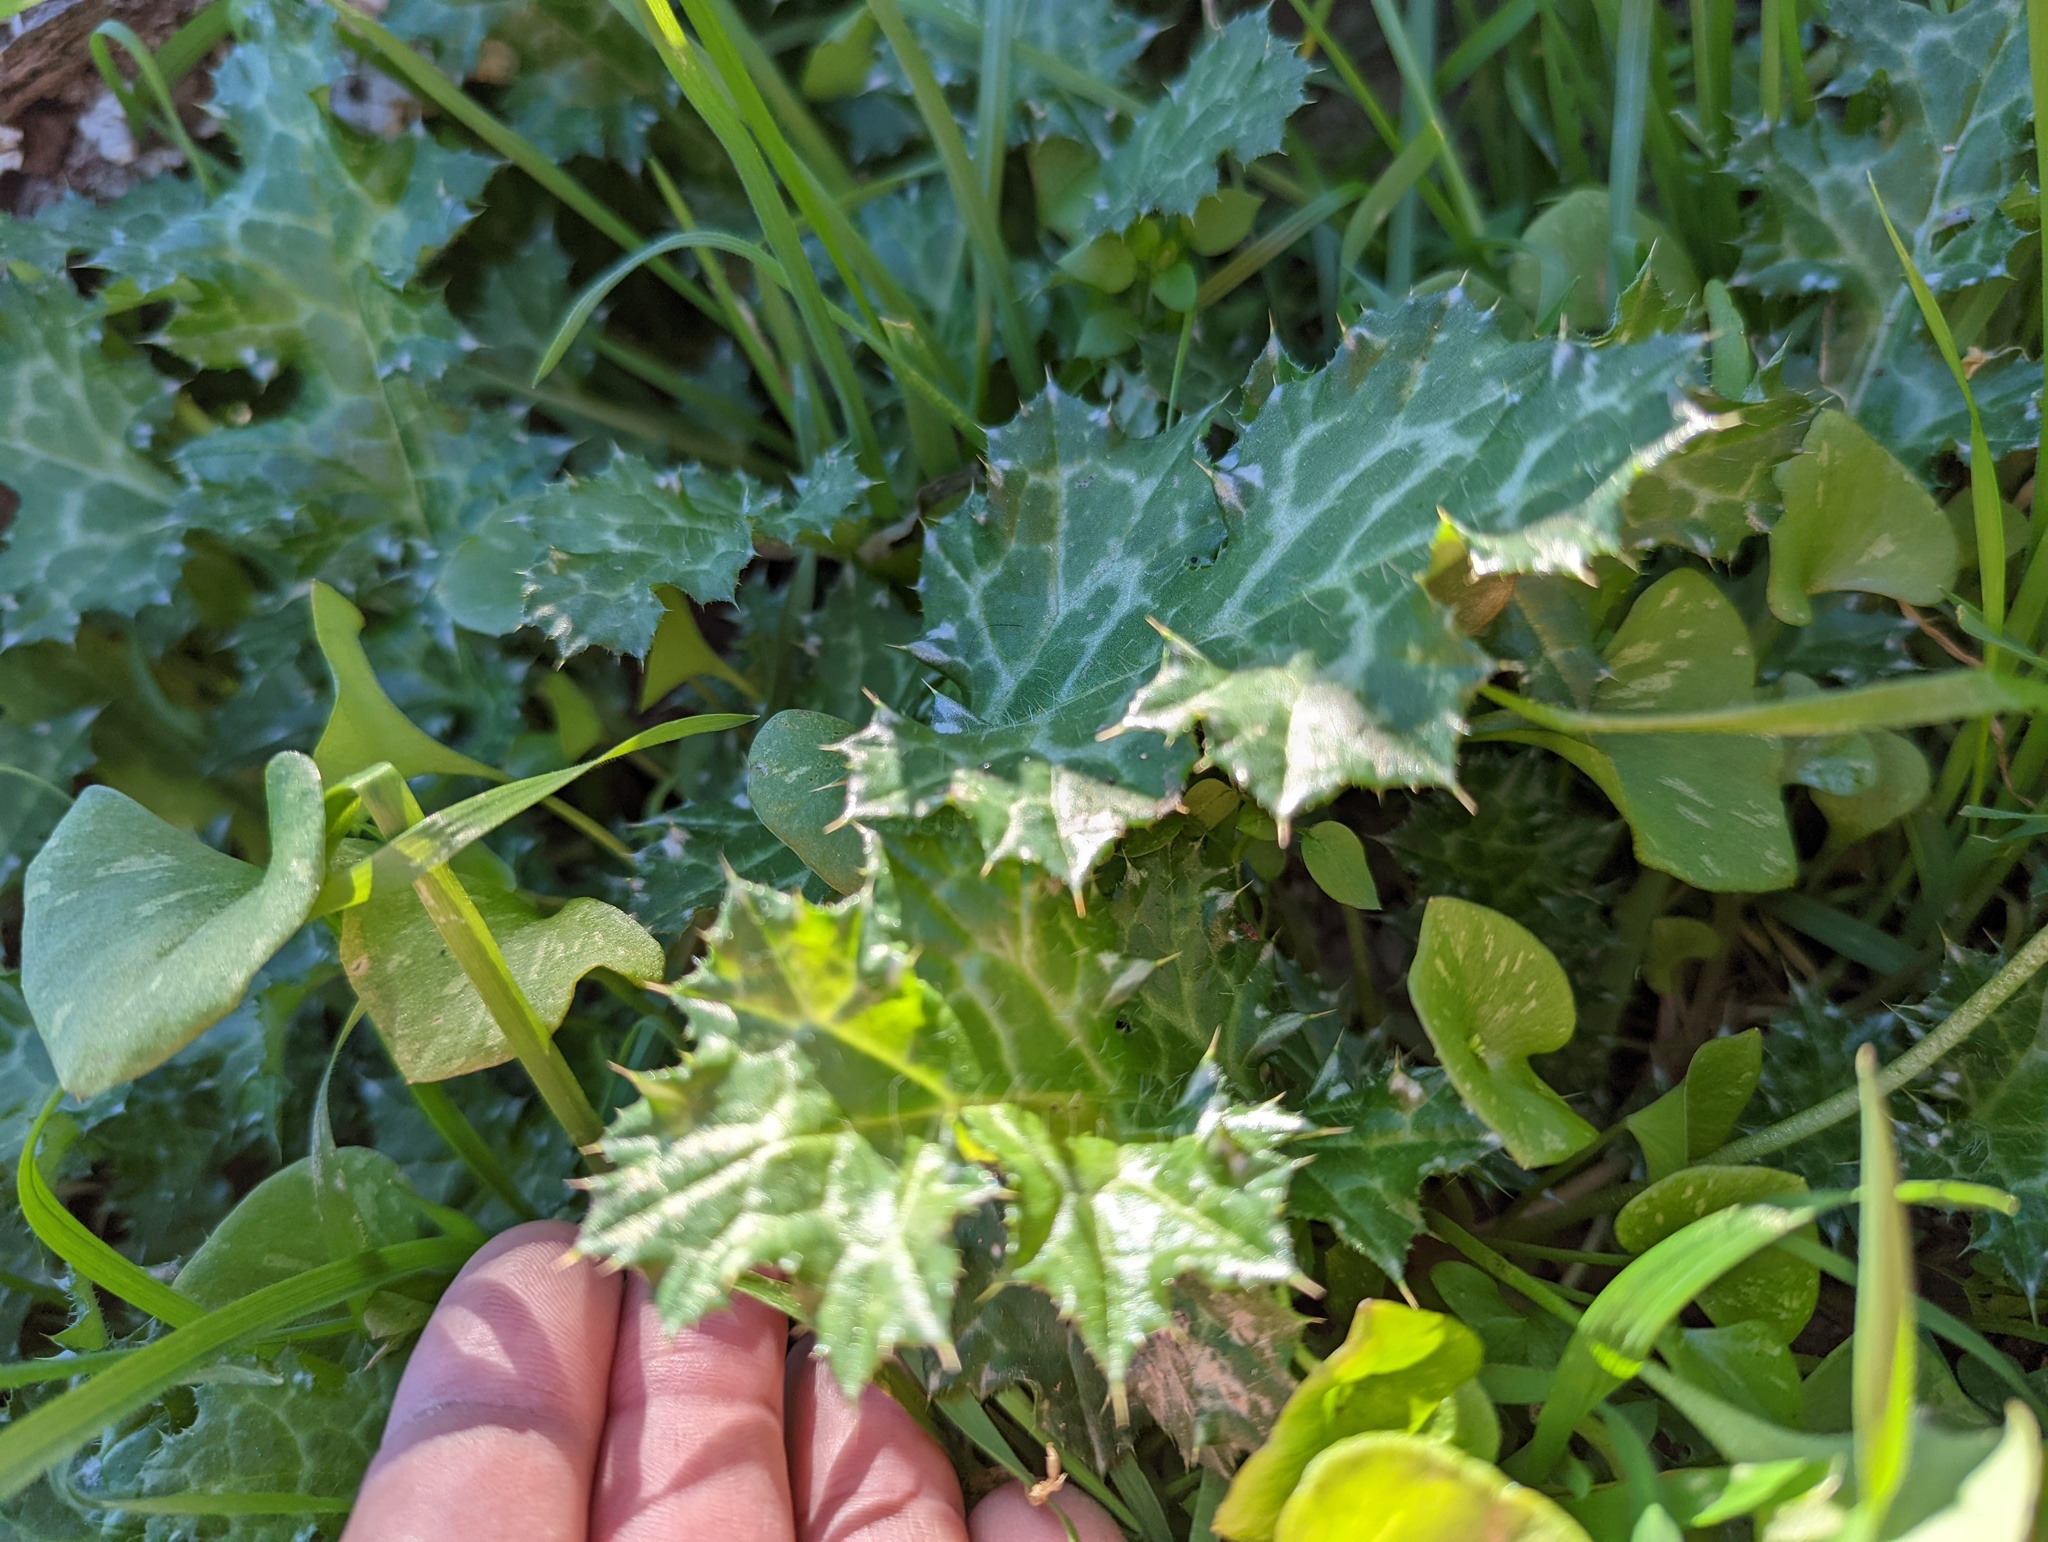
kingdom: Plantae
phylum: Tracheophyta
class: Magnoliopsida
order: Asterales
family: Asteraceae
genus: Carduus
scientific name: Carduus pycnocephalus
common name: Plymouth thistle
